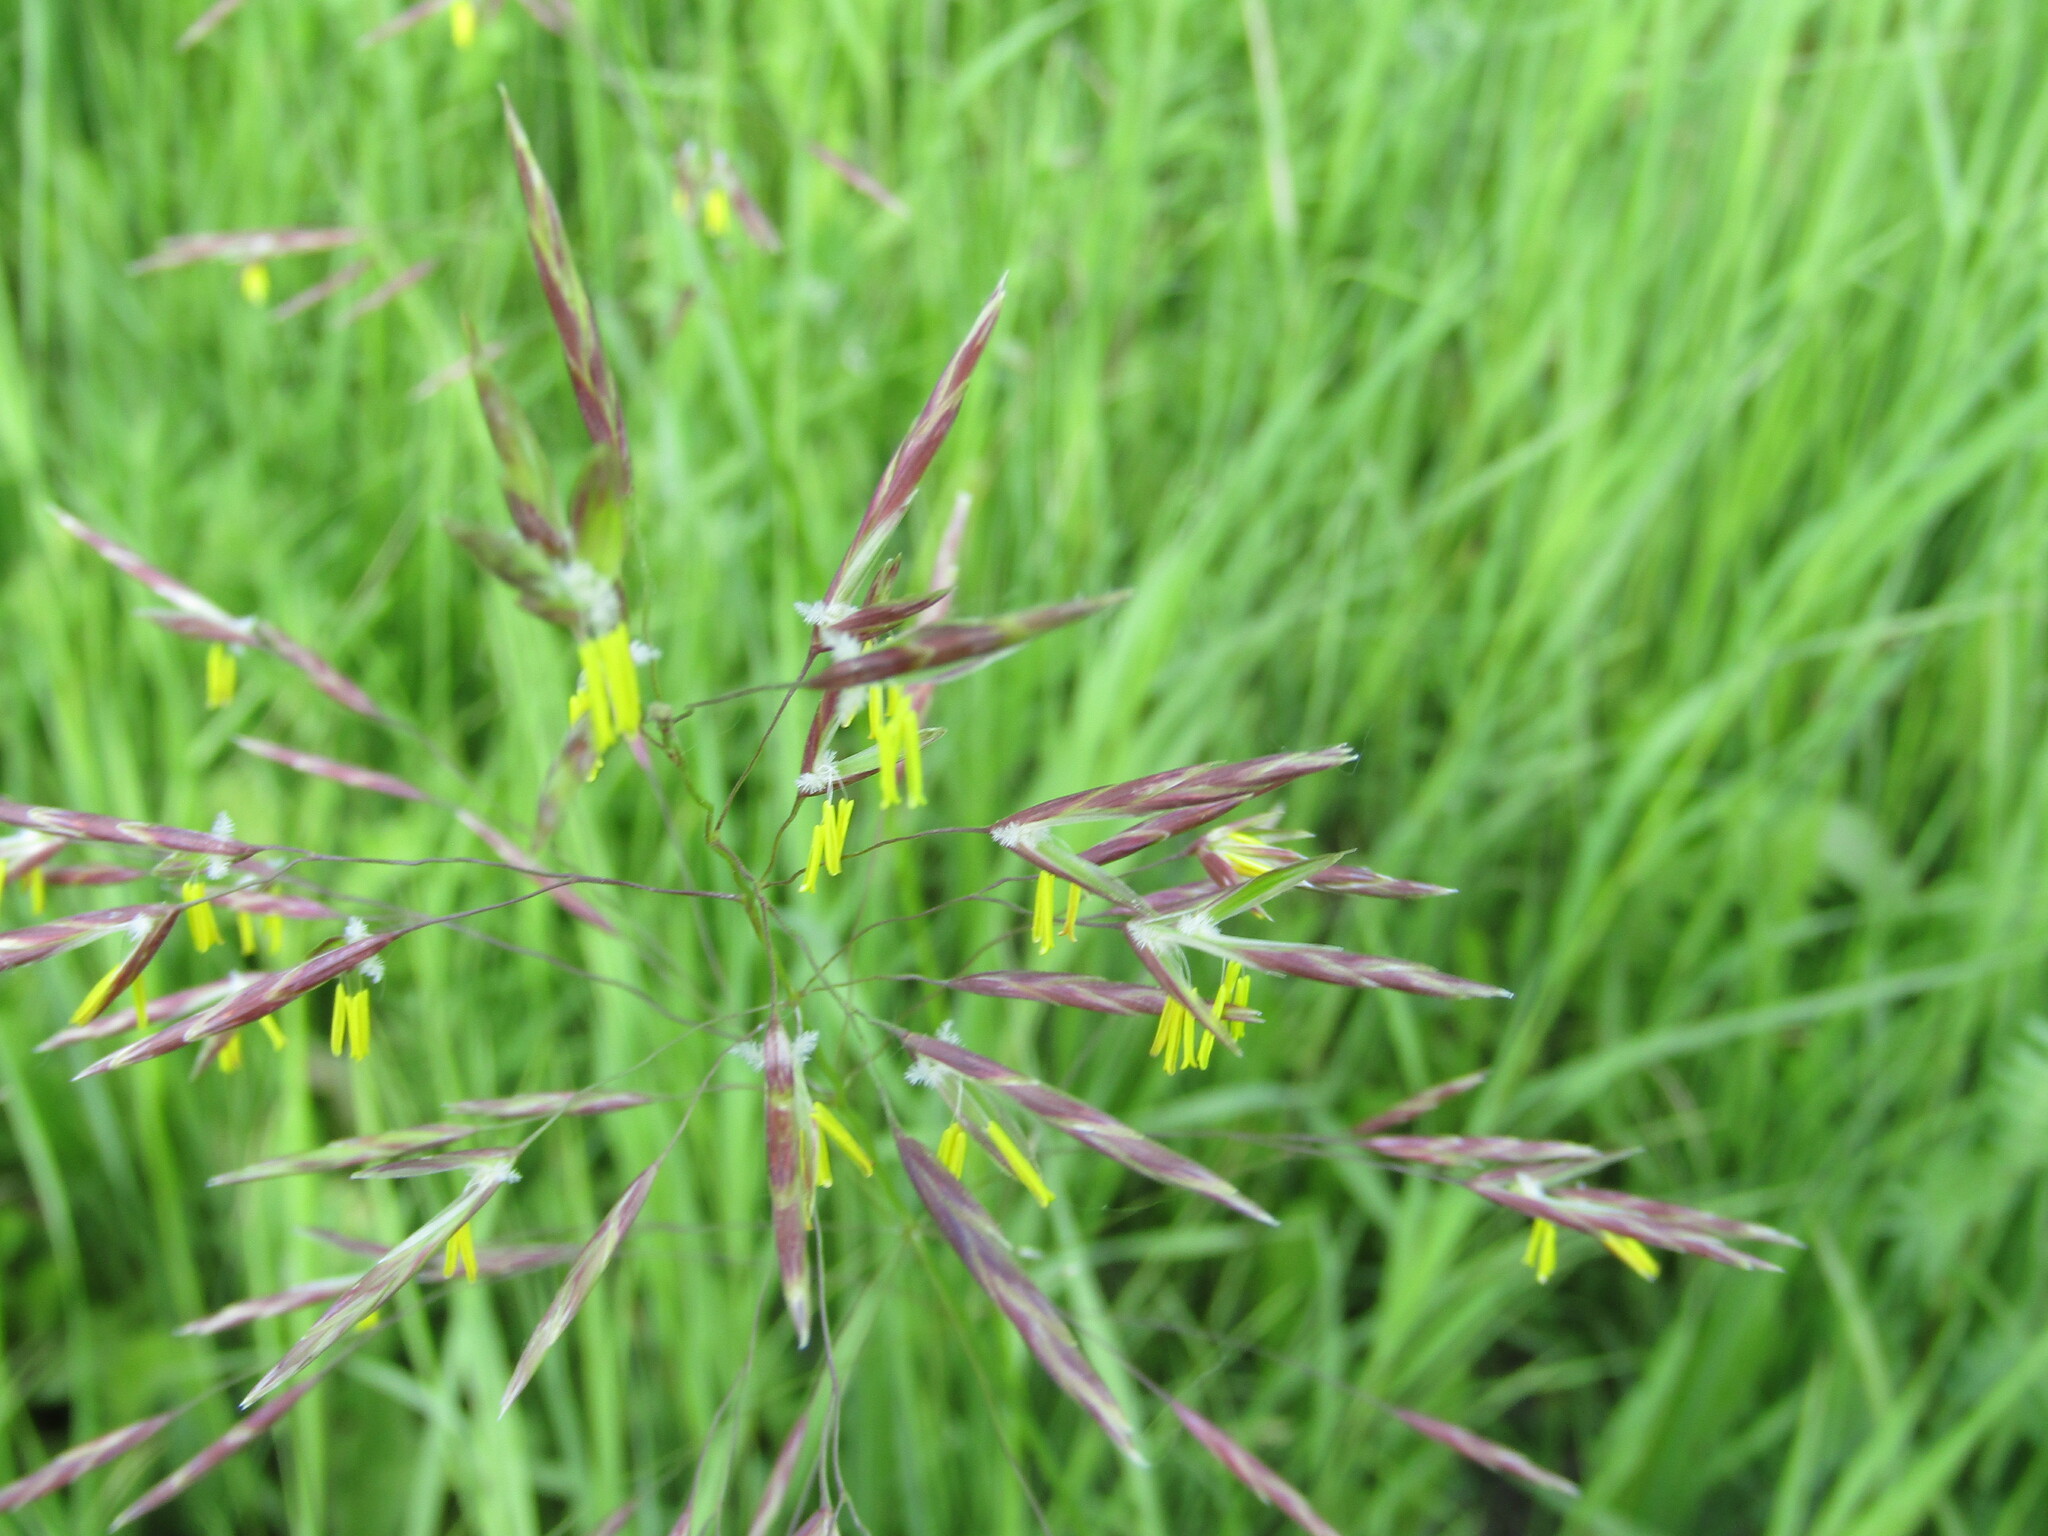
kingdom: Plantae
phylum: Tracheophyta
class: Liliopsida
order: Poales
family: Poaceae
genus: Bromus
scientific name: Bromus inermis
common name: Smooth brome
